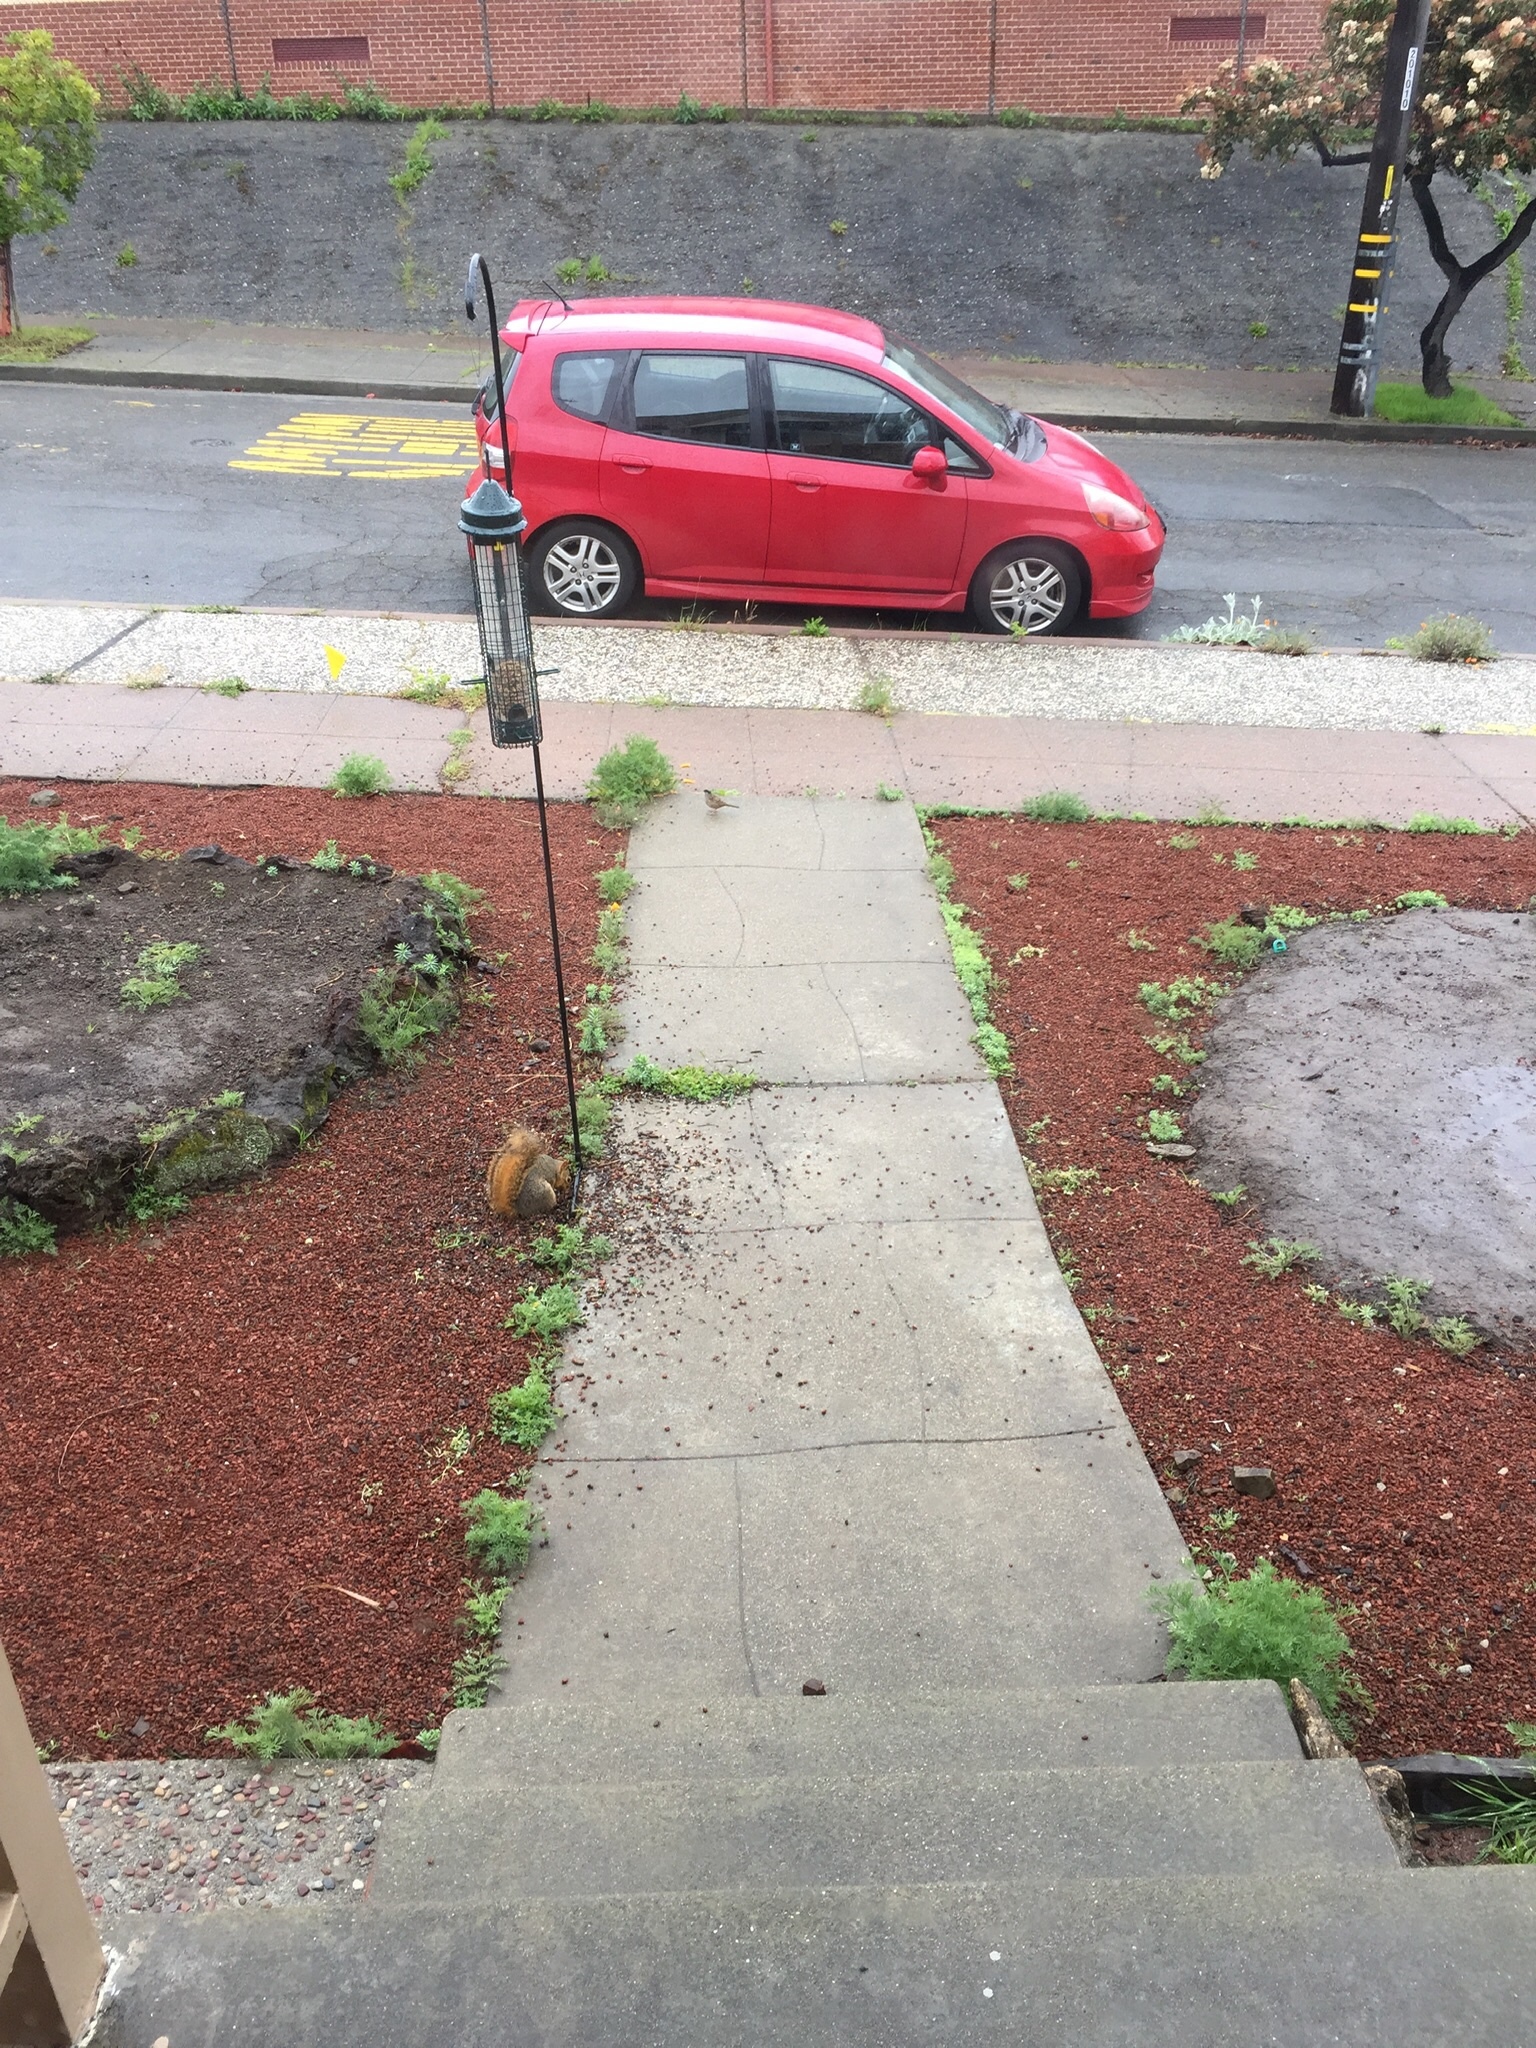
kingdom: Animalia
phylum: Chordata
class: Mammalia
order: Rodentia
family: Sciuridae
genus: Sciurus
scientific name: Sciurus niger
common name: Fox squirrel
